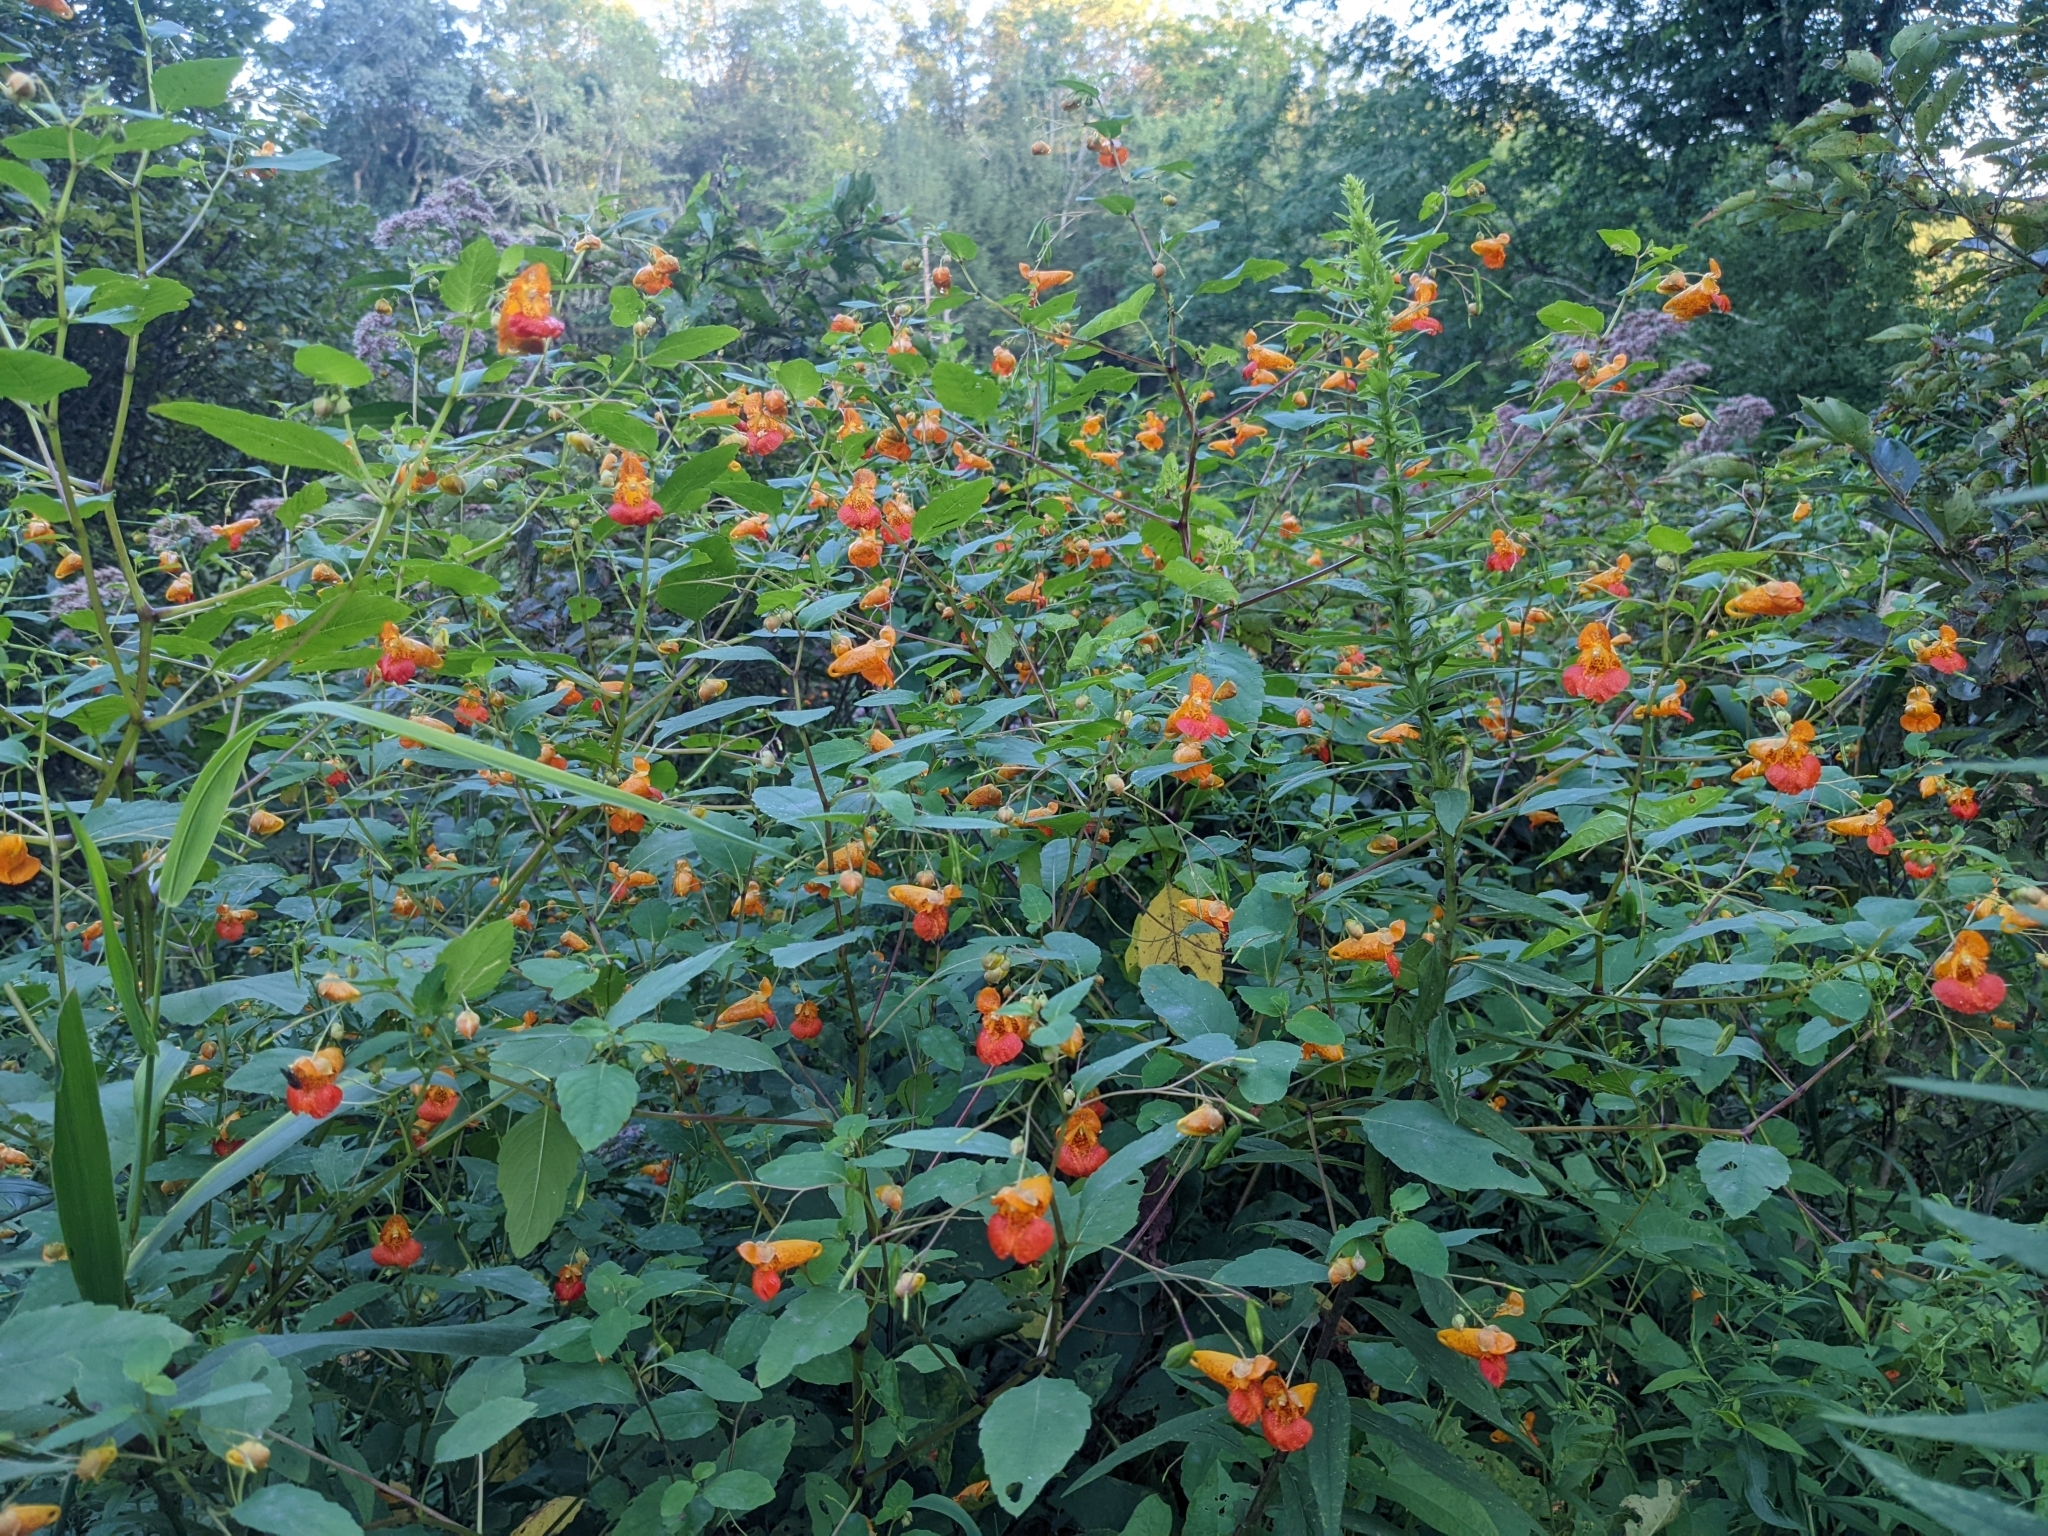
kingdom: Plantae
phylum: Tracheophyta
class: Magnoliopsida
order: Ericales
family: Balsaminaceae
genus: Impatiens
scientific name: Impatiens capensis
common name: Orange balsam
